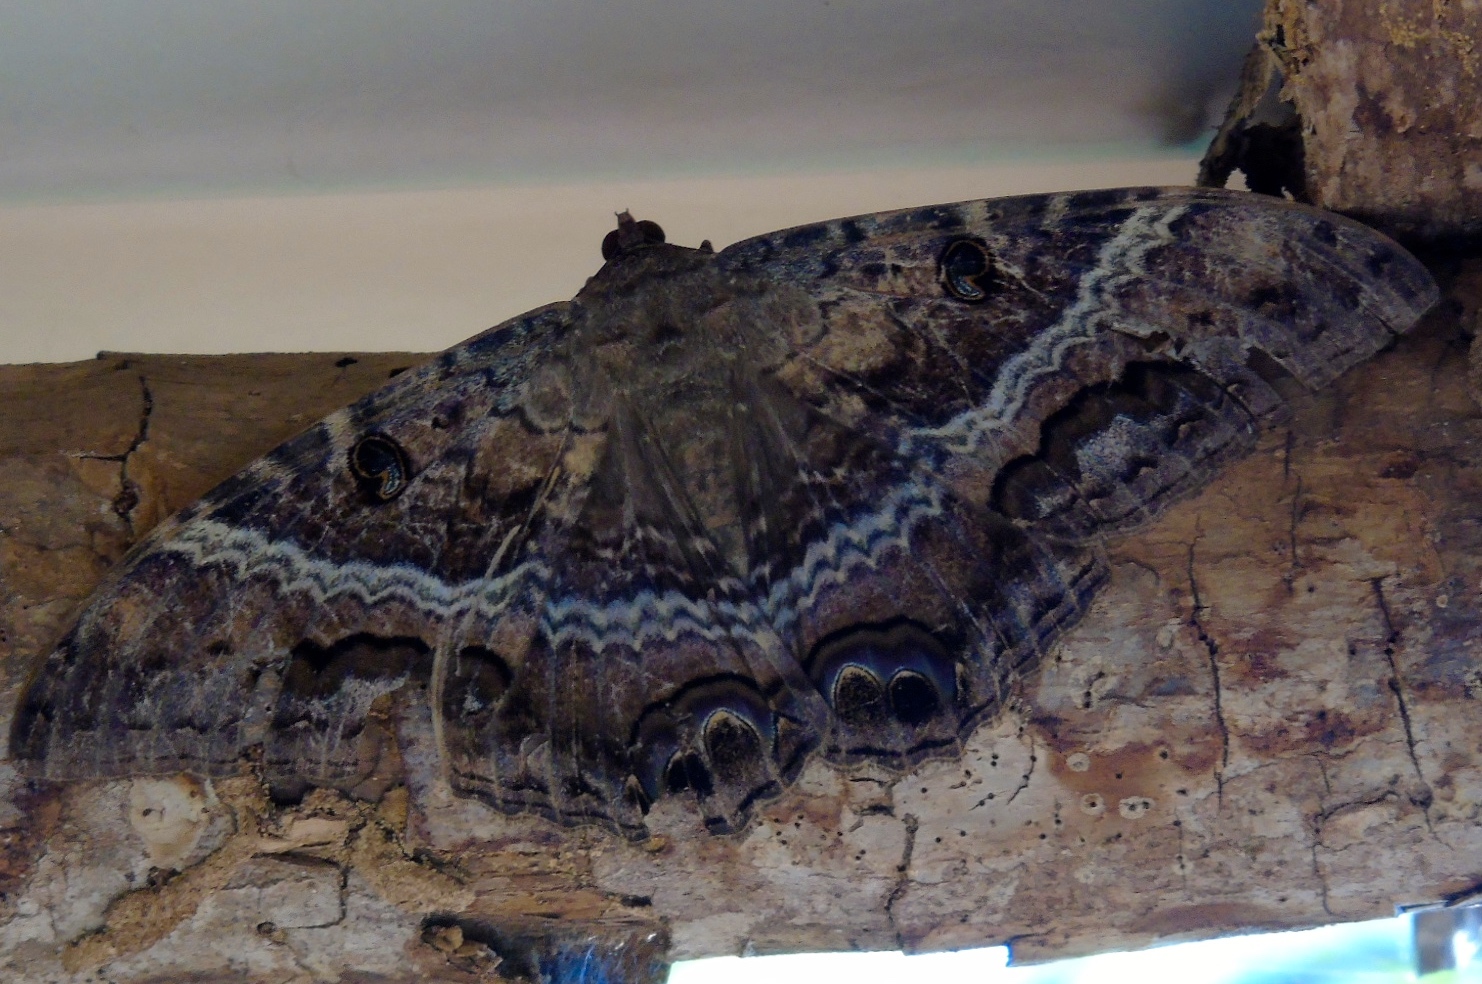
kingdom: Animalia
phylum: Arthropoda
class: Insecta
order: Lepidoptera
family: Erebidae
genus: Ascalapha
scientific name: Ascalapha odorata
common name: Black witch
